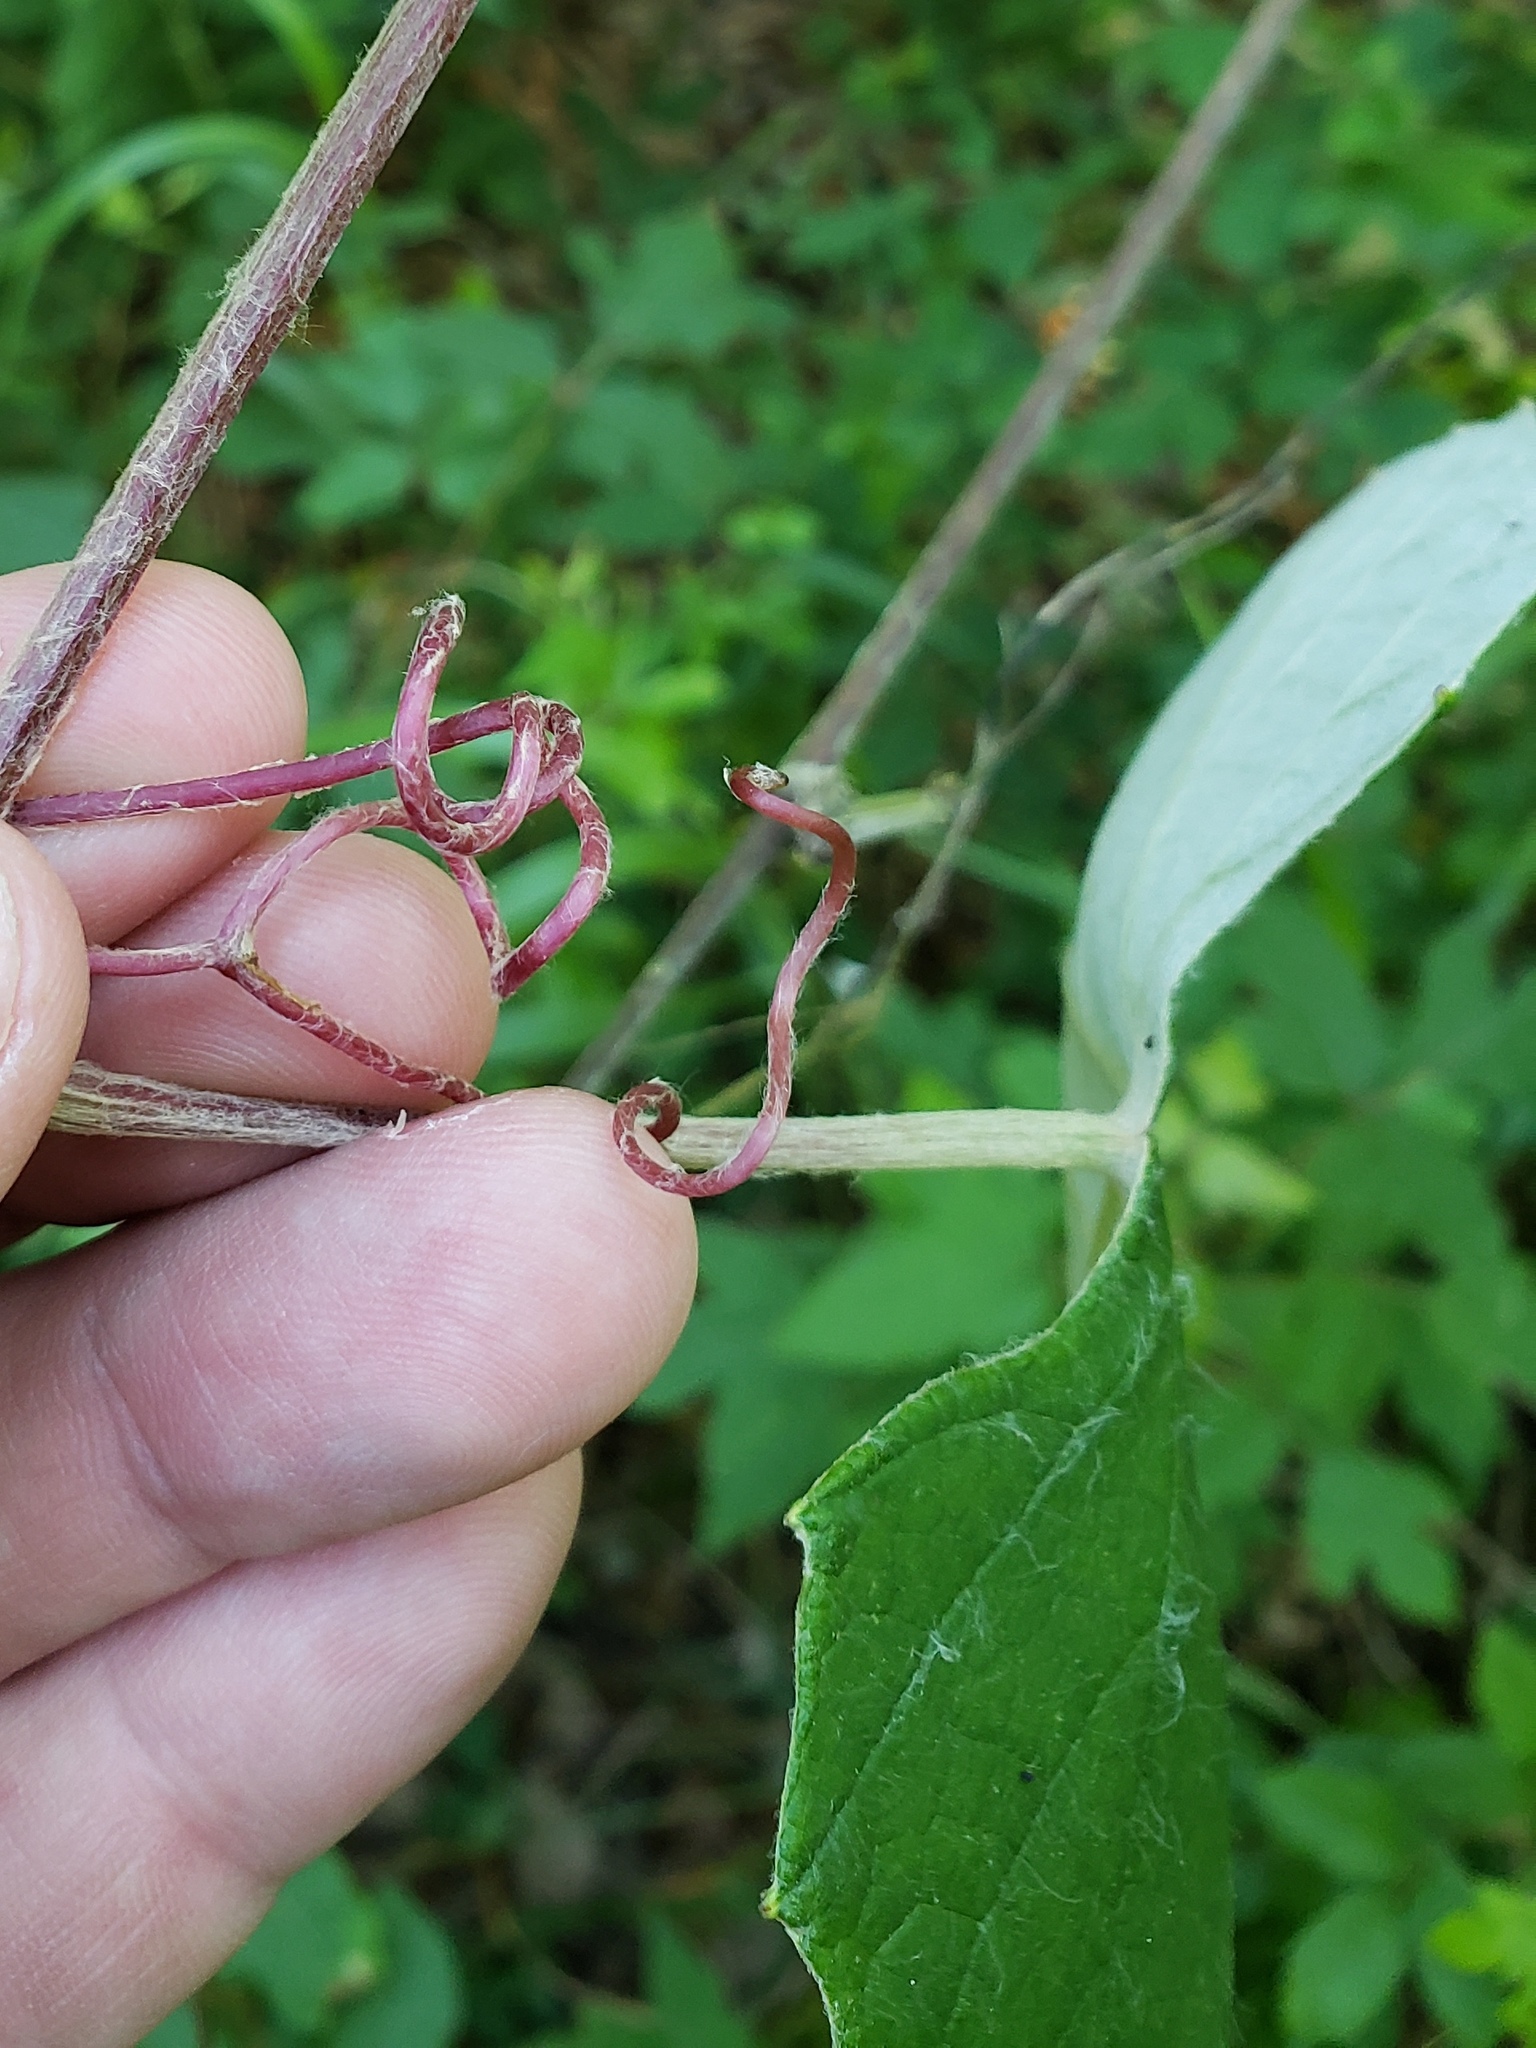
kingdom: Plantae
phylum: Tracheophyta
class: Magnoliopsida
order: Vitales
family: Vitaceae
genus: Vitis
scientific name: Vitis mustangensis
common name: Mustang grape
